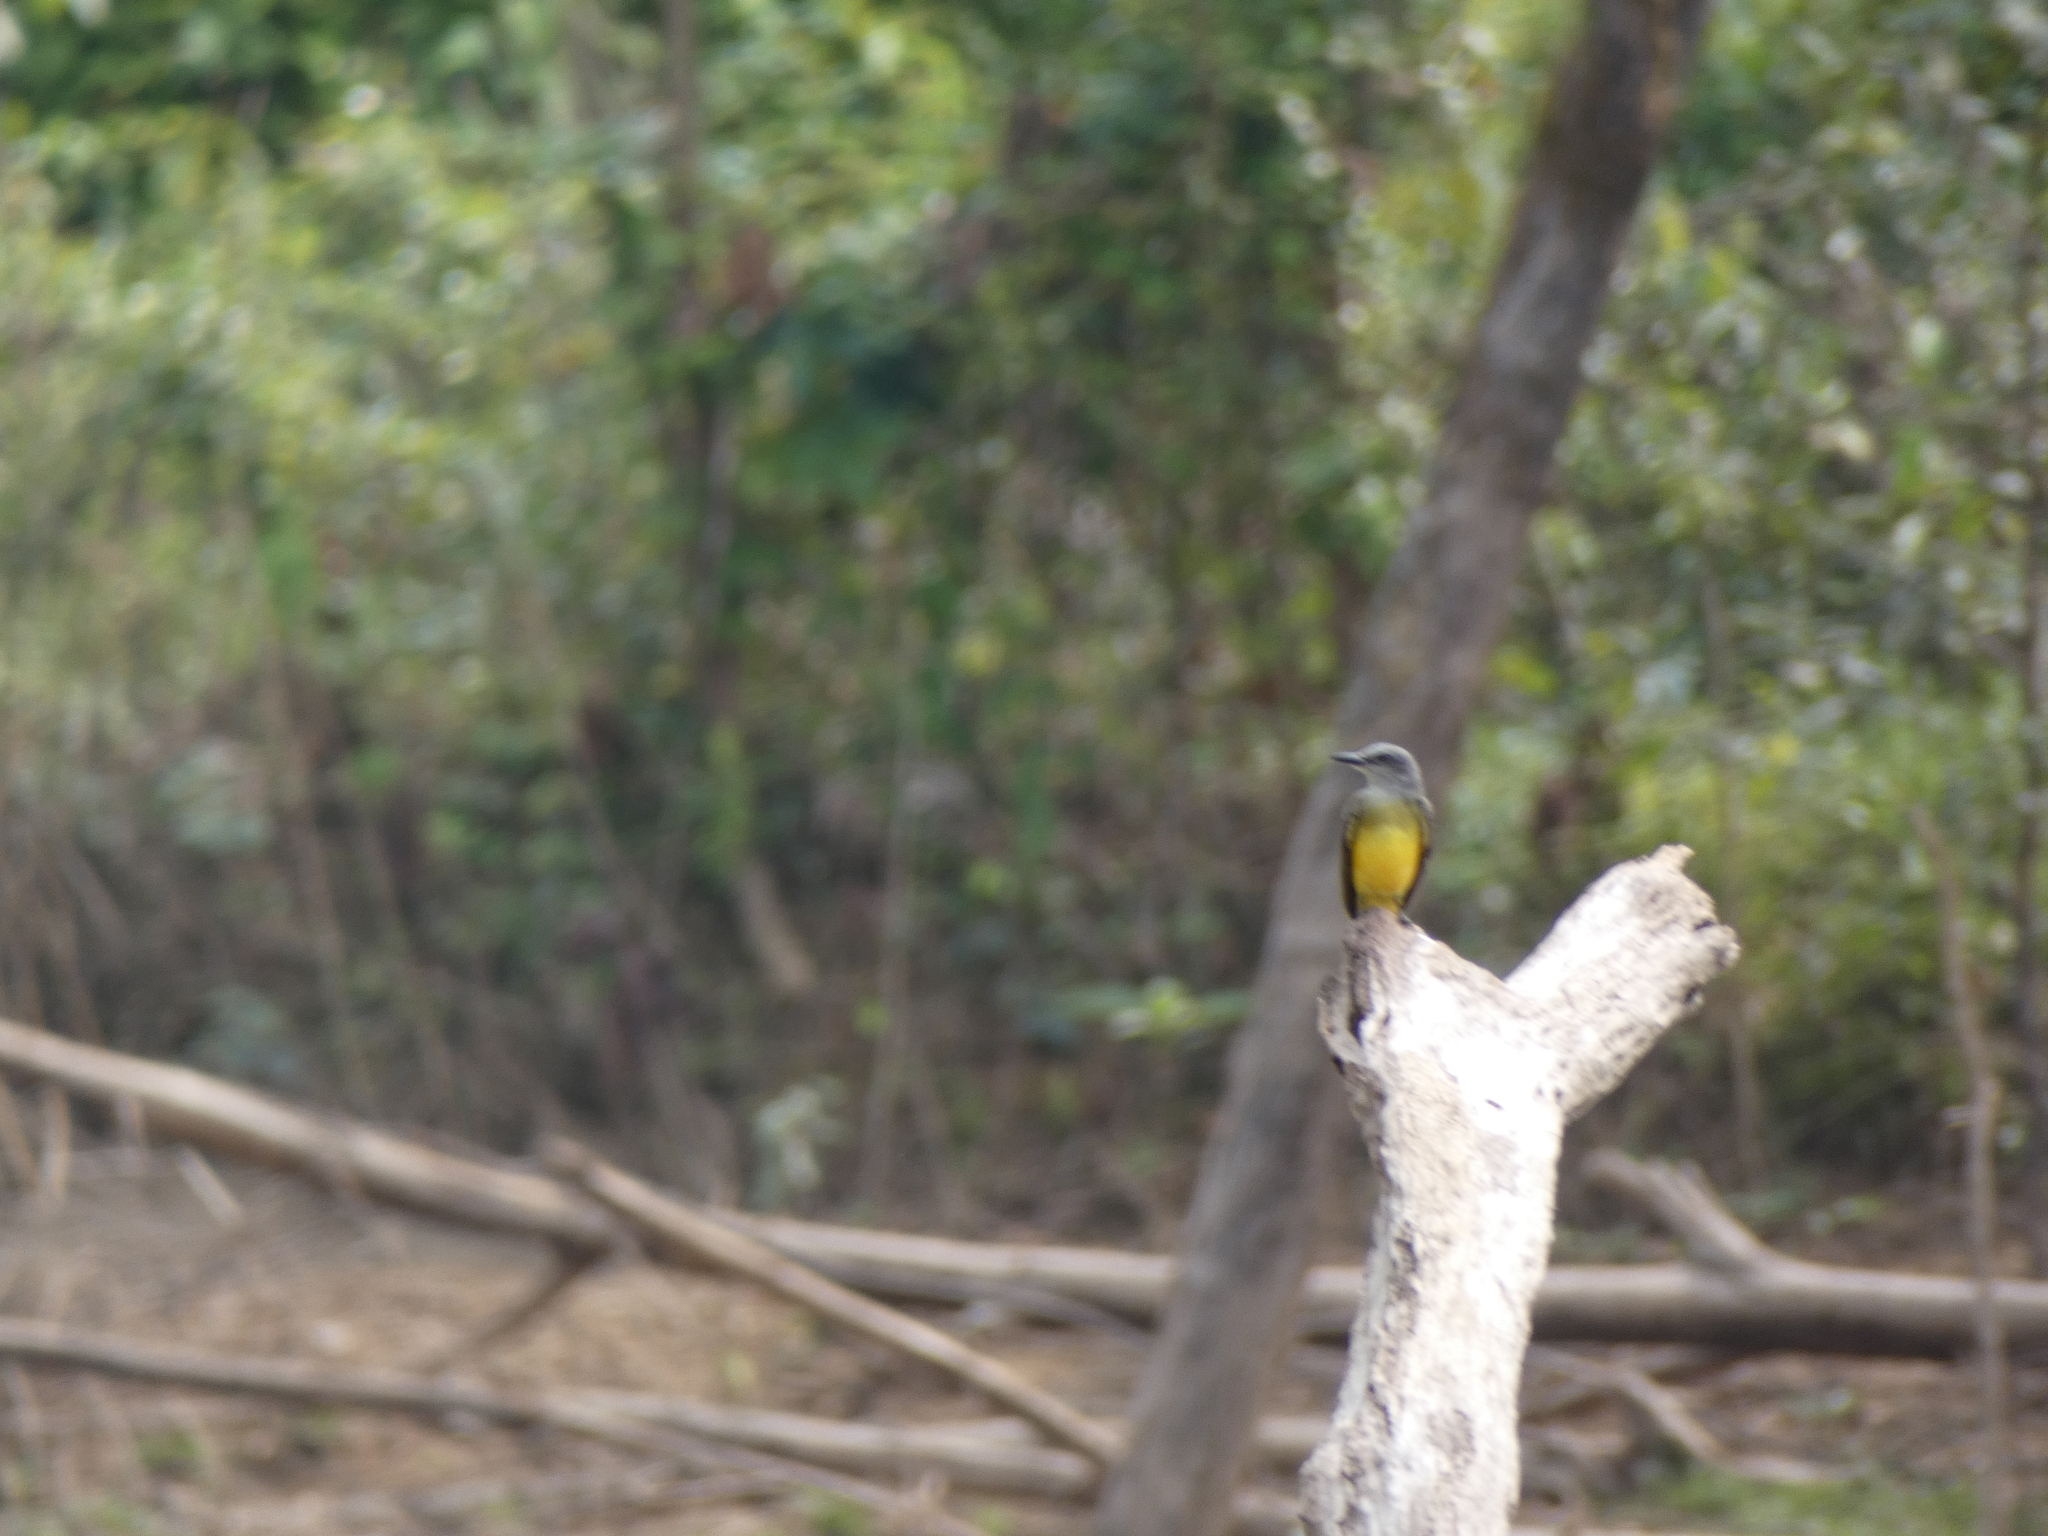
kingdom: Animalia
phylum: Chordata
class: Aves
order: Passeriformes
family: Tyrannidae
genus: Tyrannus
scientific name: Tyrannus melancholicus
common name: Tropical kingbird
